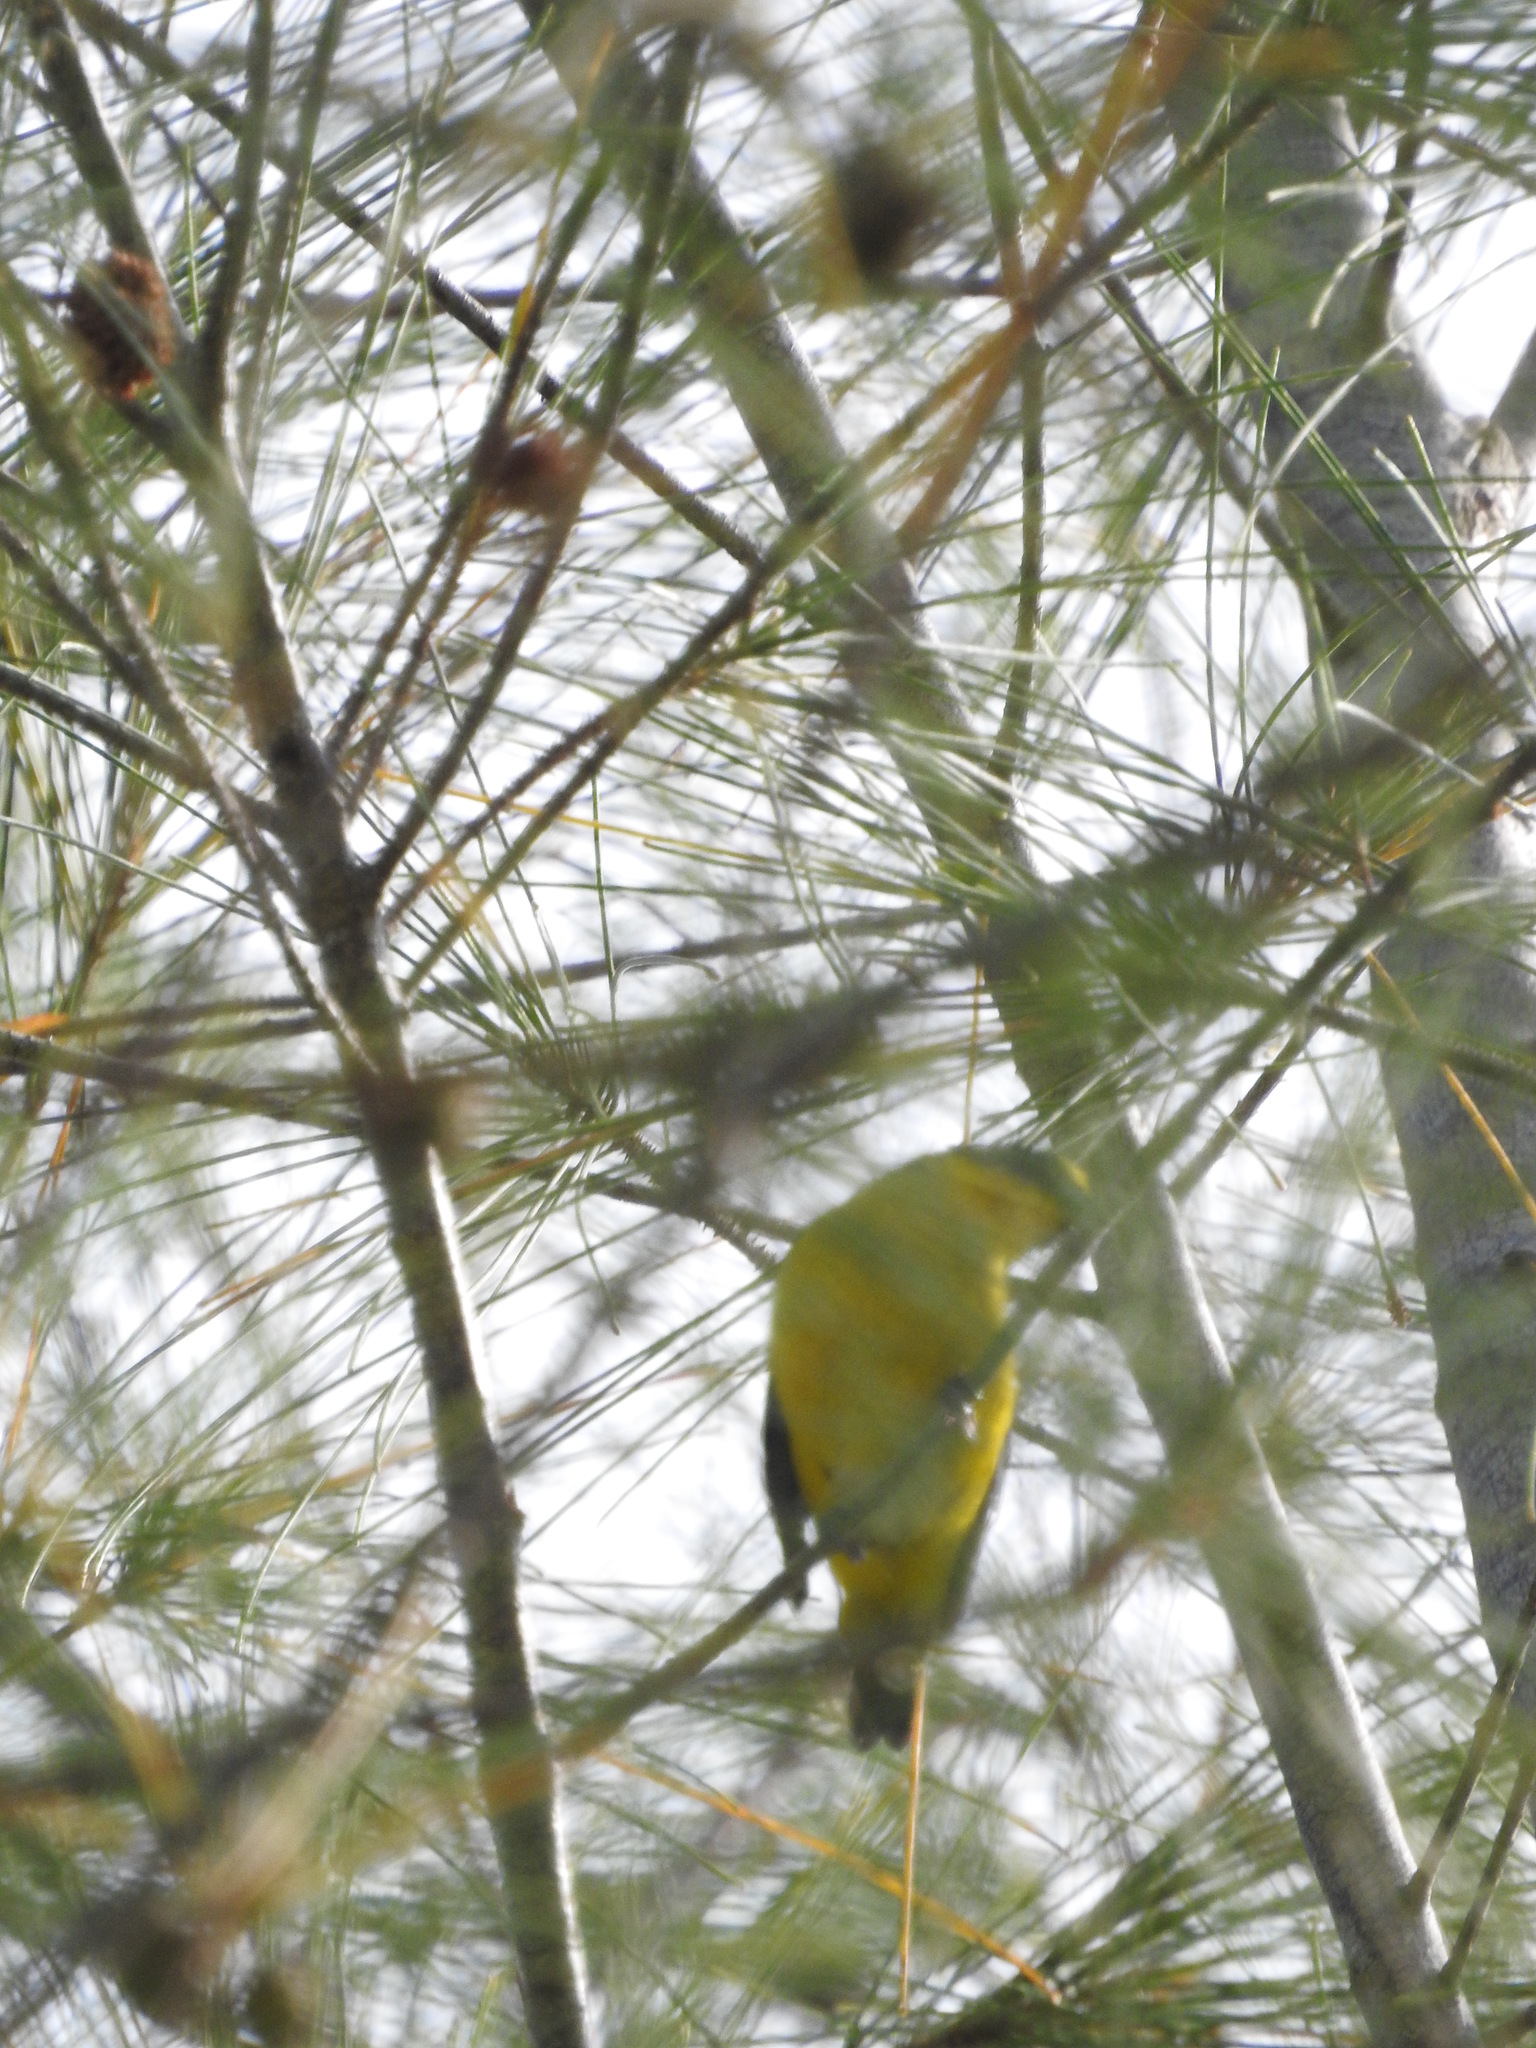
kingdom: Animalia
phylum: Chordata
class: Aves
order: Passeriformes
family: Fringillidae
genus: Euphonia
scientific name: Euphonia hirundinacea
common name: Yellow-throated euphonia
